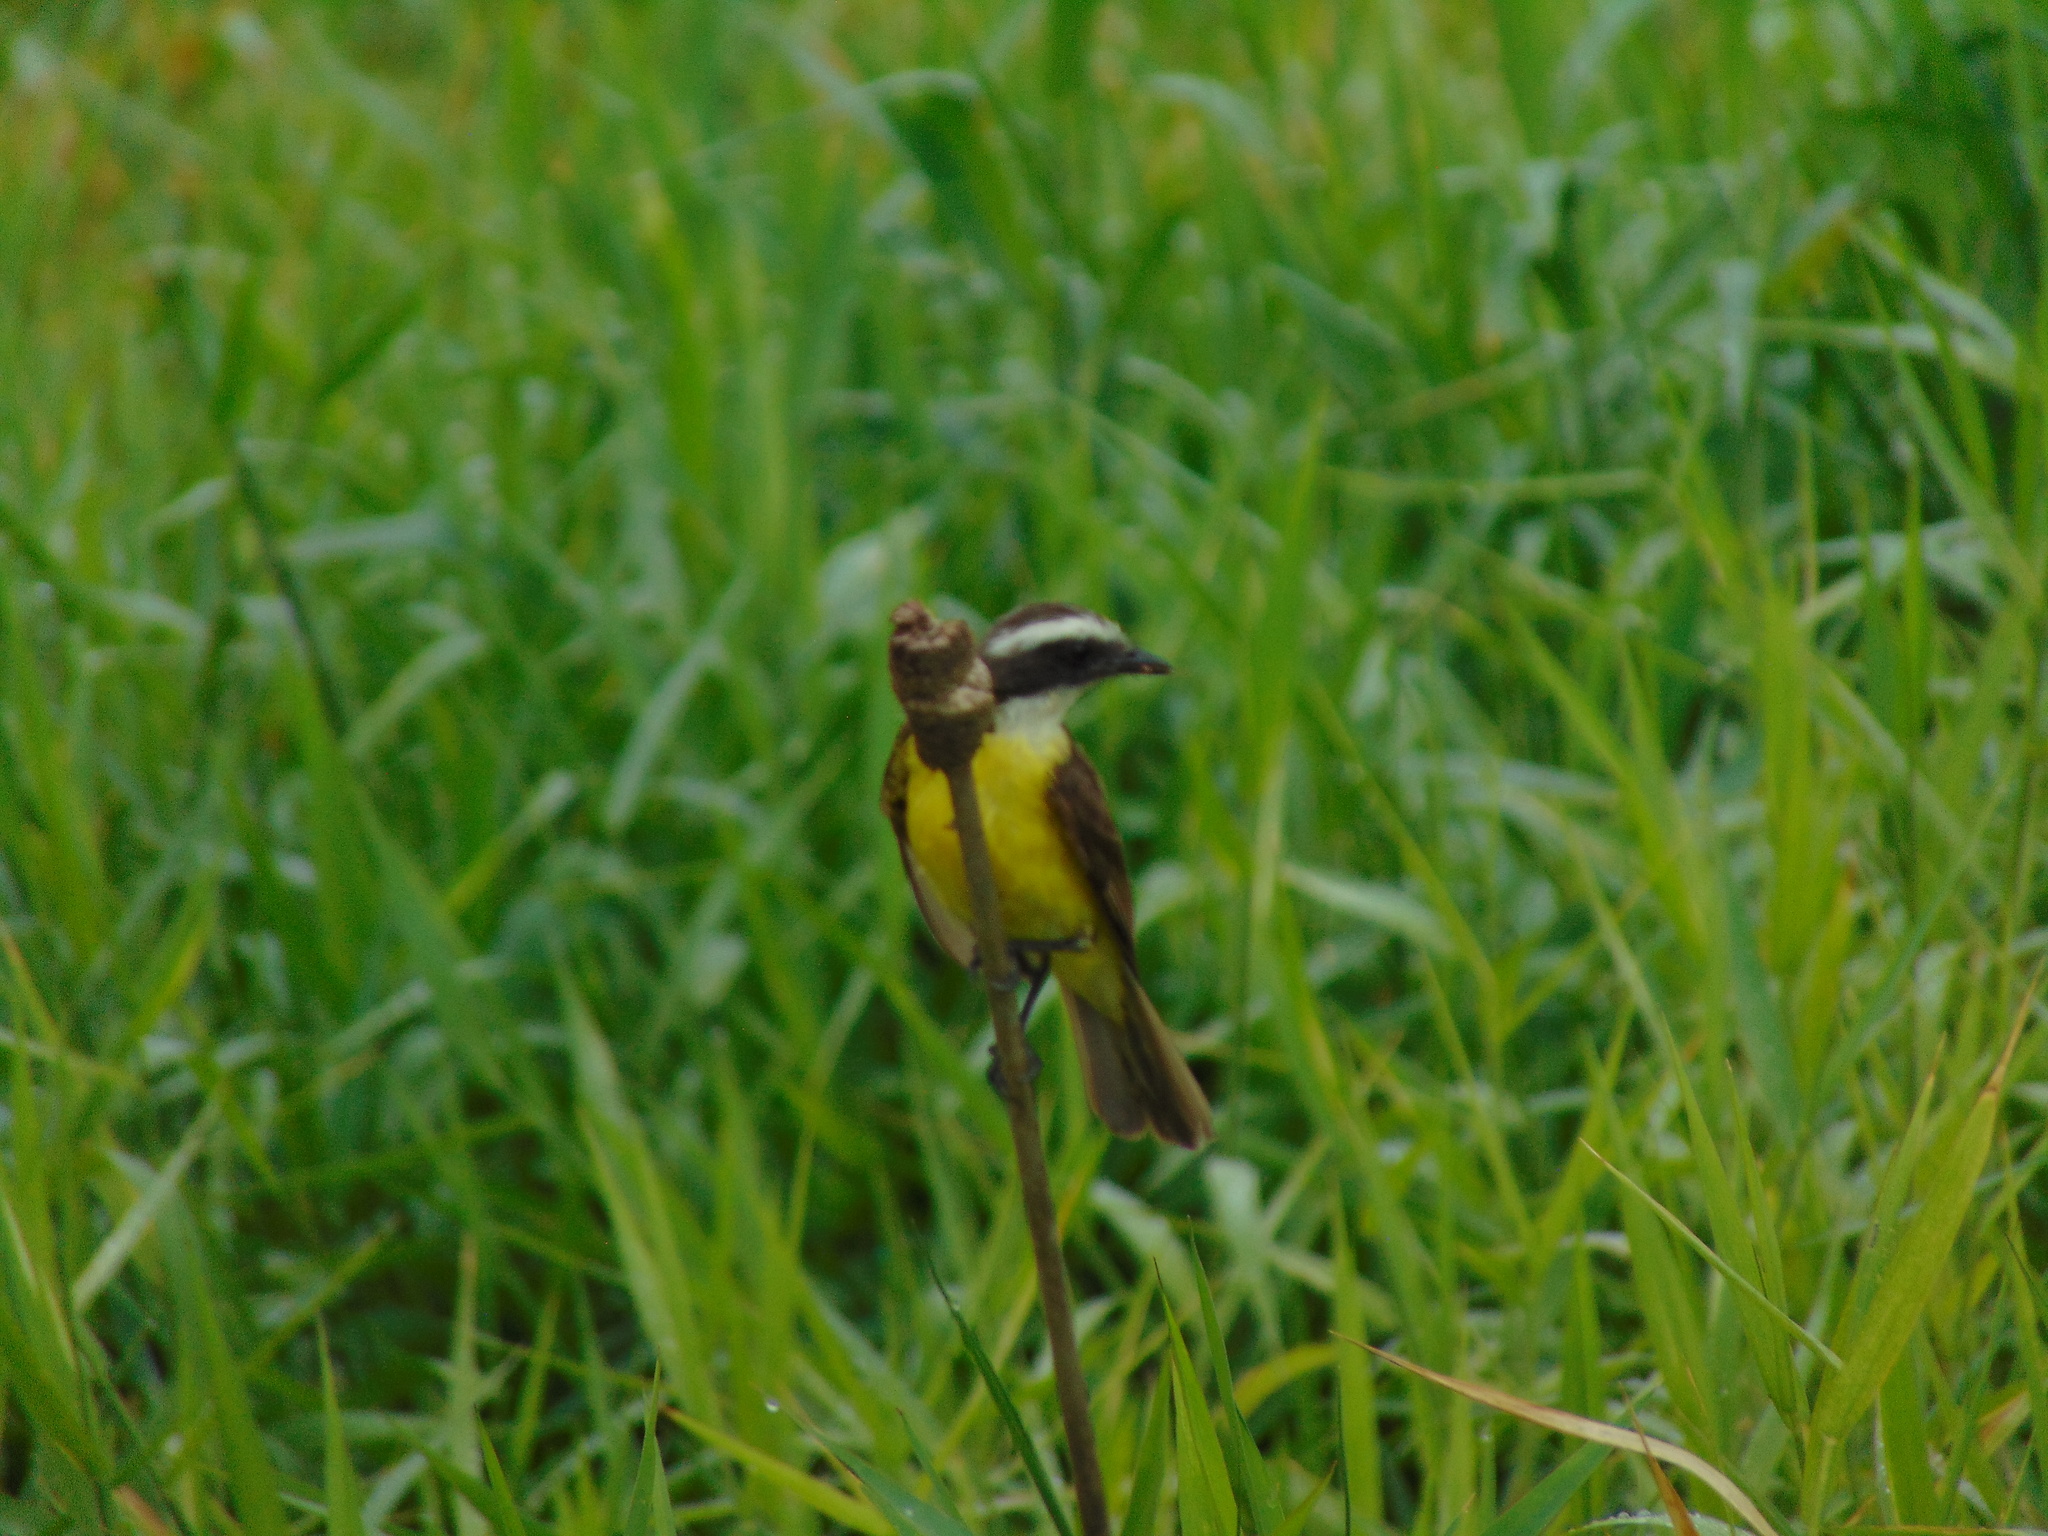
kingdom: Animalia
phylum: Chordata
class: Aves
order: Passeriformes
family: Tyrannidae
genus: Myiozetetes
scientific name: Myiozetetes similis
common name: Social flycatcher
